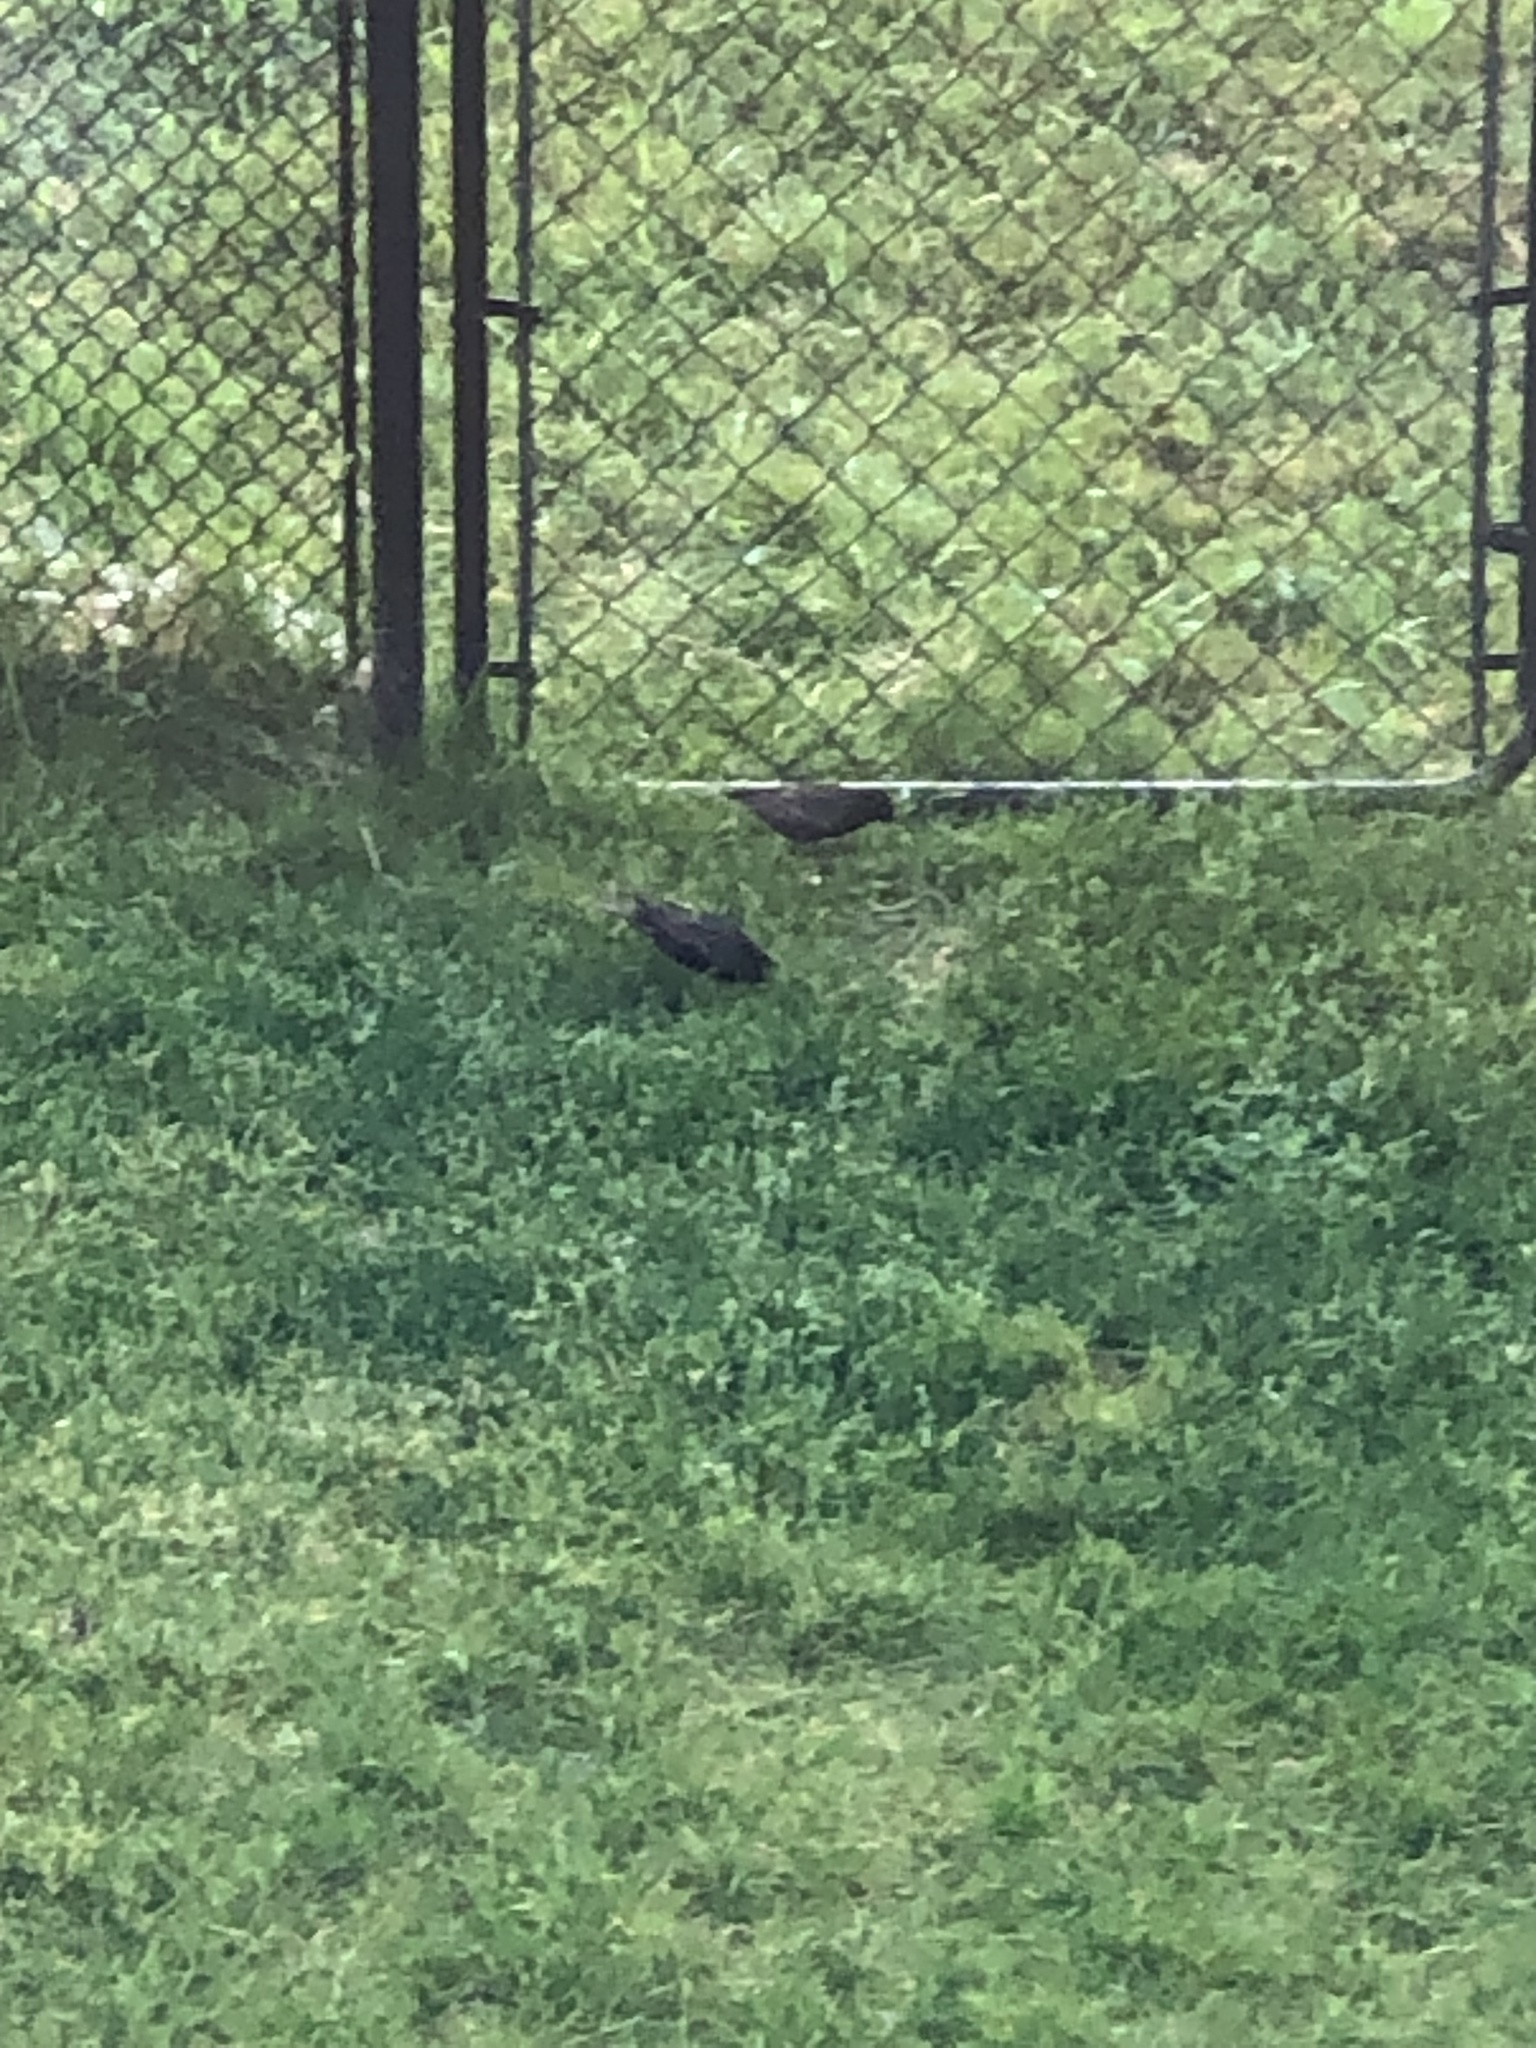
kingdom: Animalia
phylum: Chordata
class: Aves
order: Passeriformes
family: Sturnidae
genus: Sturnus
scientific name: Sturnus vulgaris
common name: Common starling
